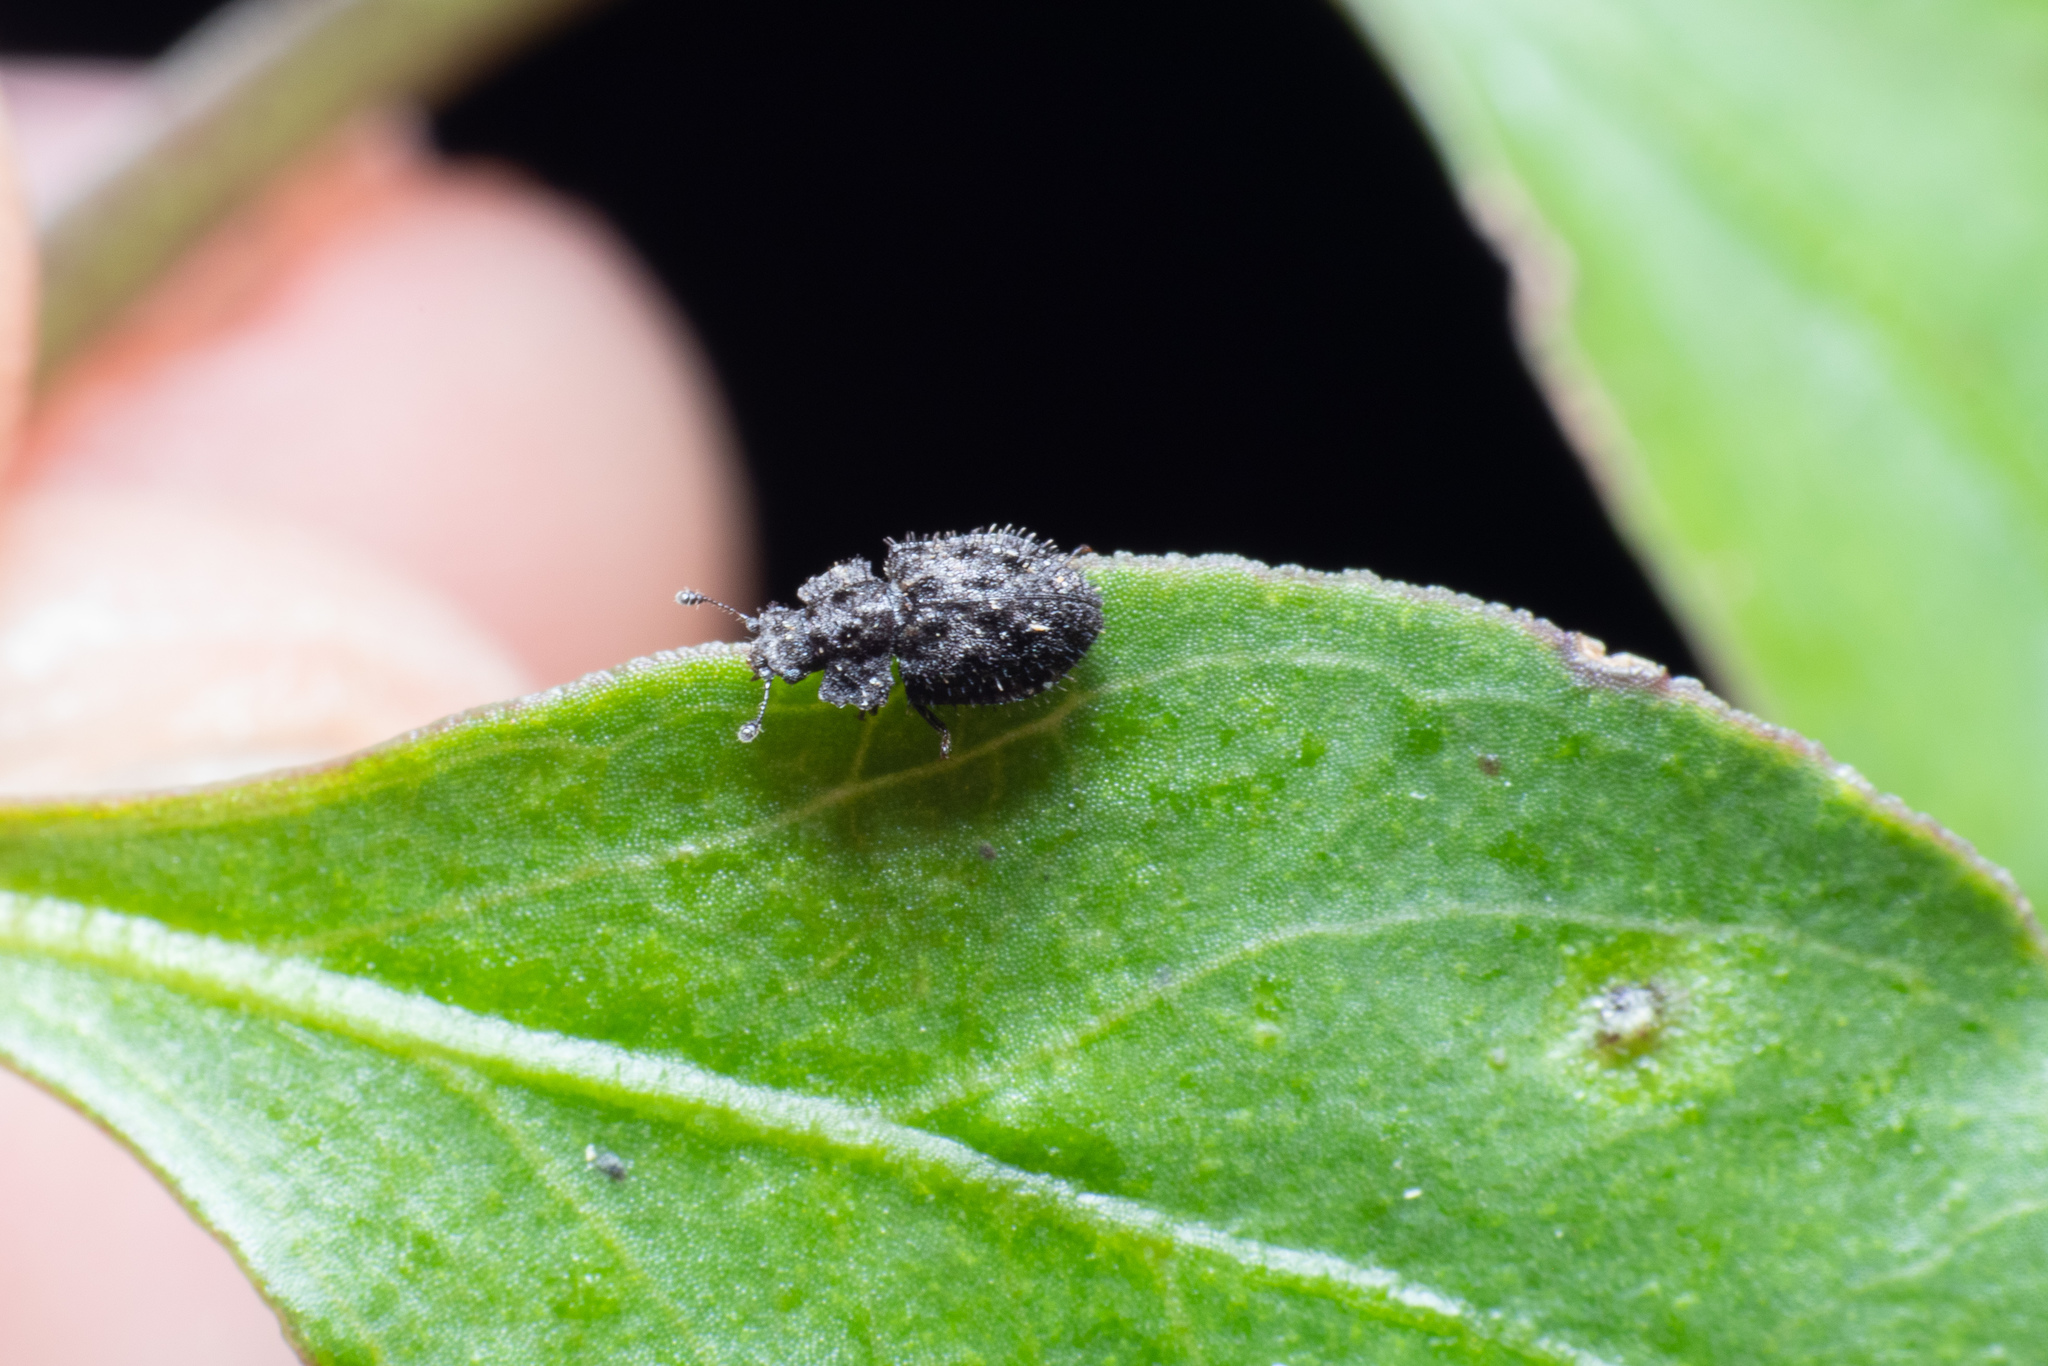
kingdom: Animalia
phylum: Arthropoda
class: Insecta
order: Coleoptera
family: Nitidulidae
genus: Hisparonia
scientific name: Hisparonia
